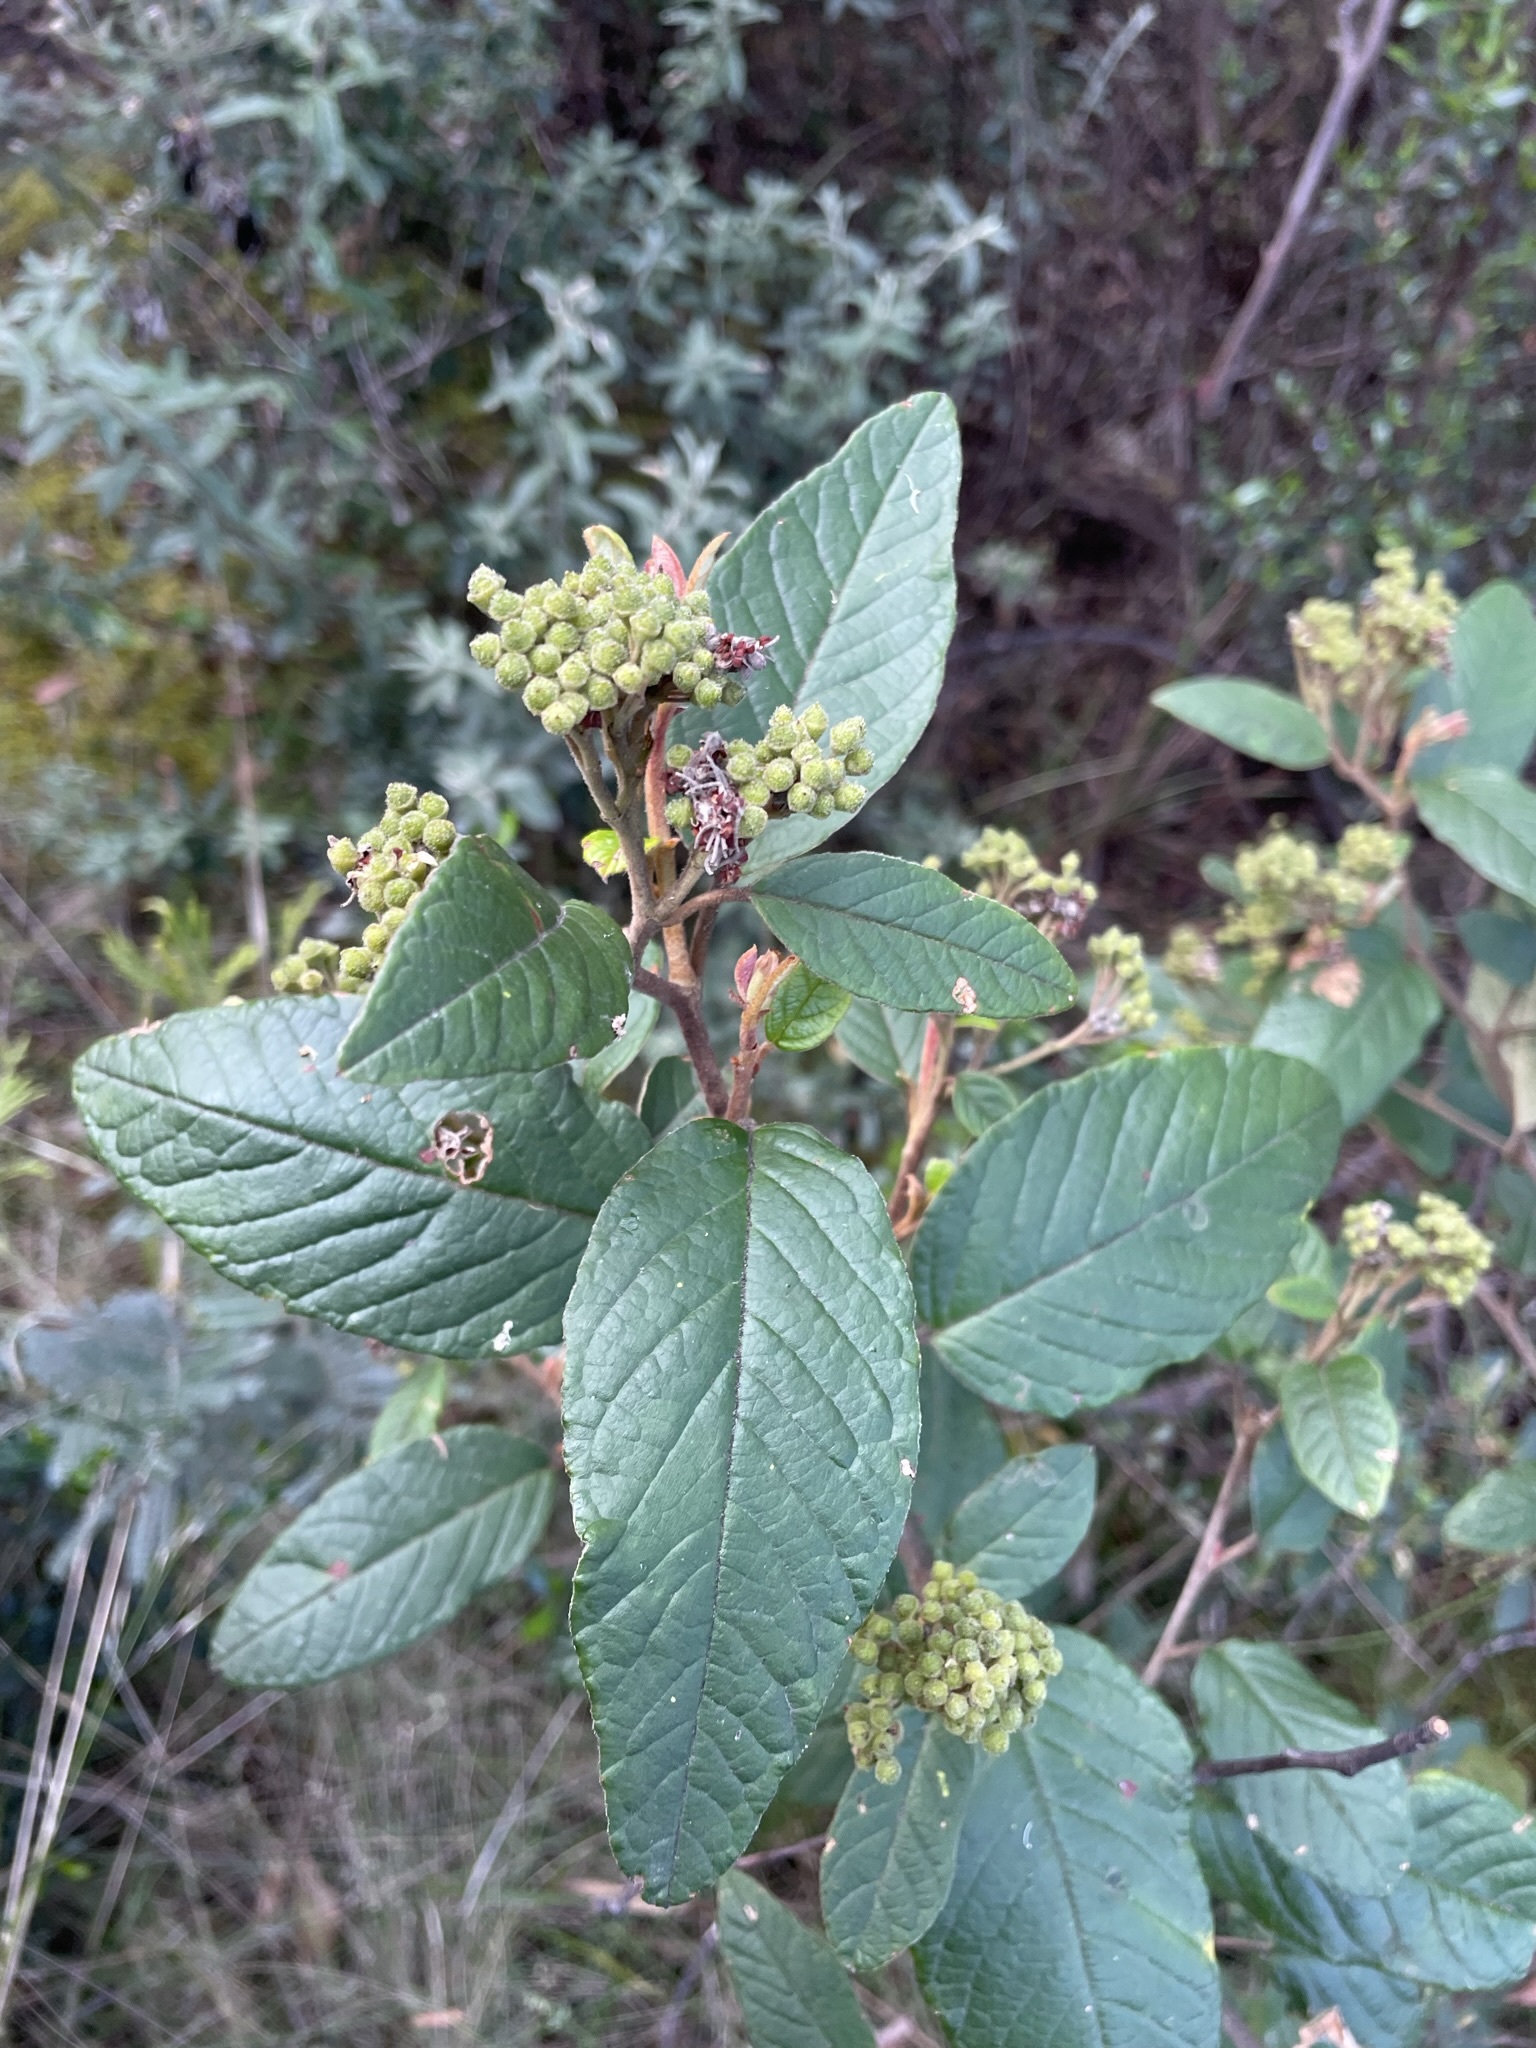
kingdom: Plantae
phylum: Tracheophyta
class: Magnoliopsida
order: Rosales
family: Rhamnaceae
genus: Pomaderris
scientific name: Pomaderris elliptica
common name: Yellow-dogwood
